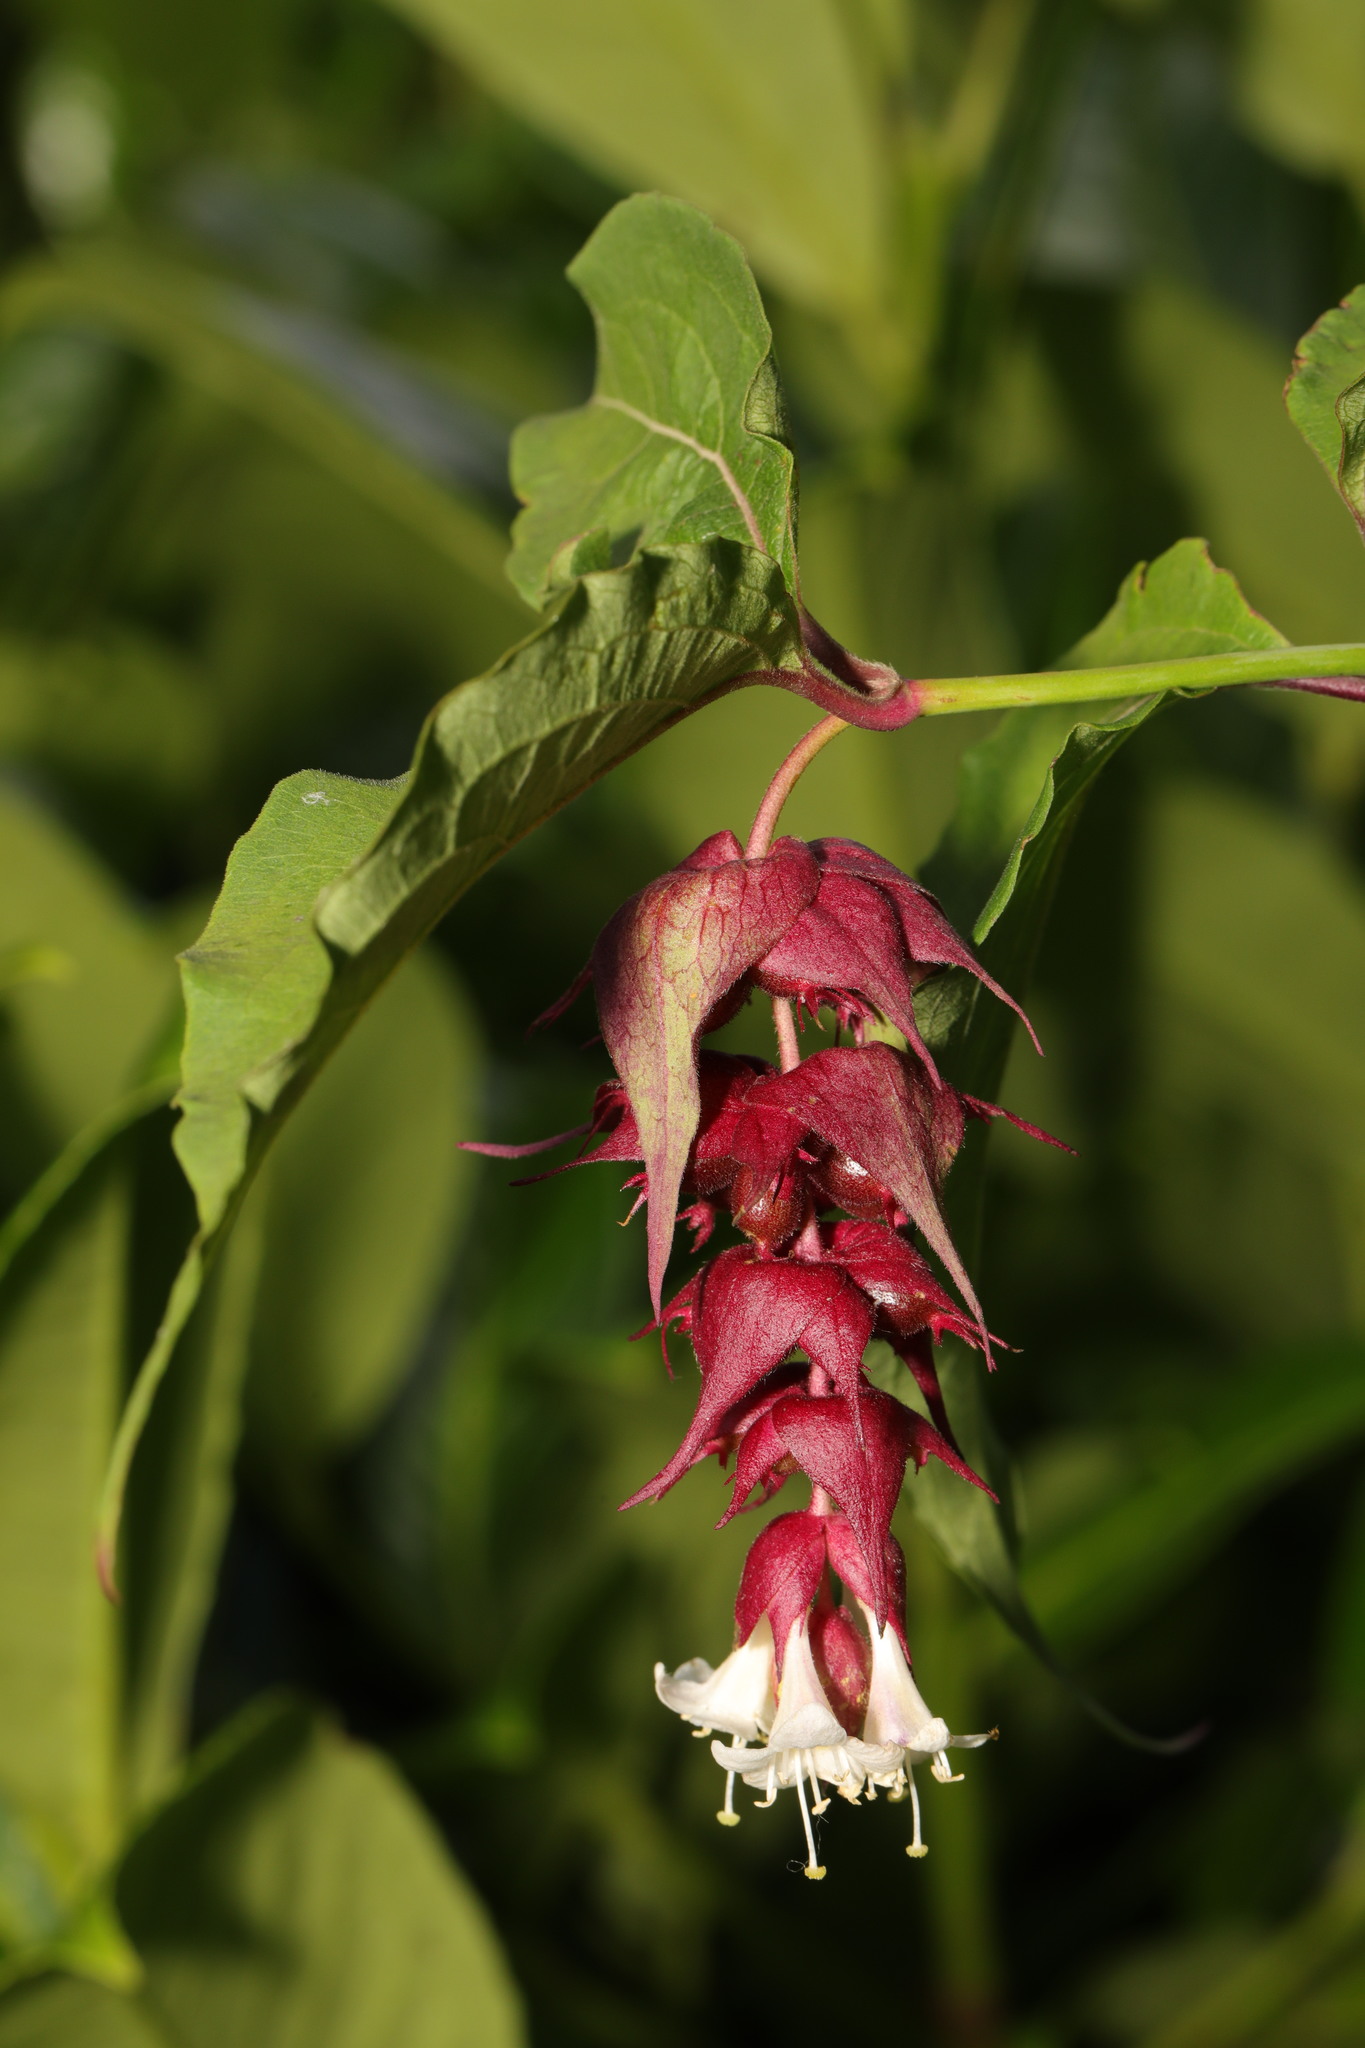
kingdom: Plantae
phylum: Tracheophyta
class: Magnoliopsida
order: Dipsacales
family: Caprifoliaceae
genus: Leycesteria
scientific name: Leycesteria formosa
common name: Himalayan honeysuckle
